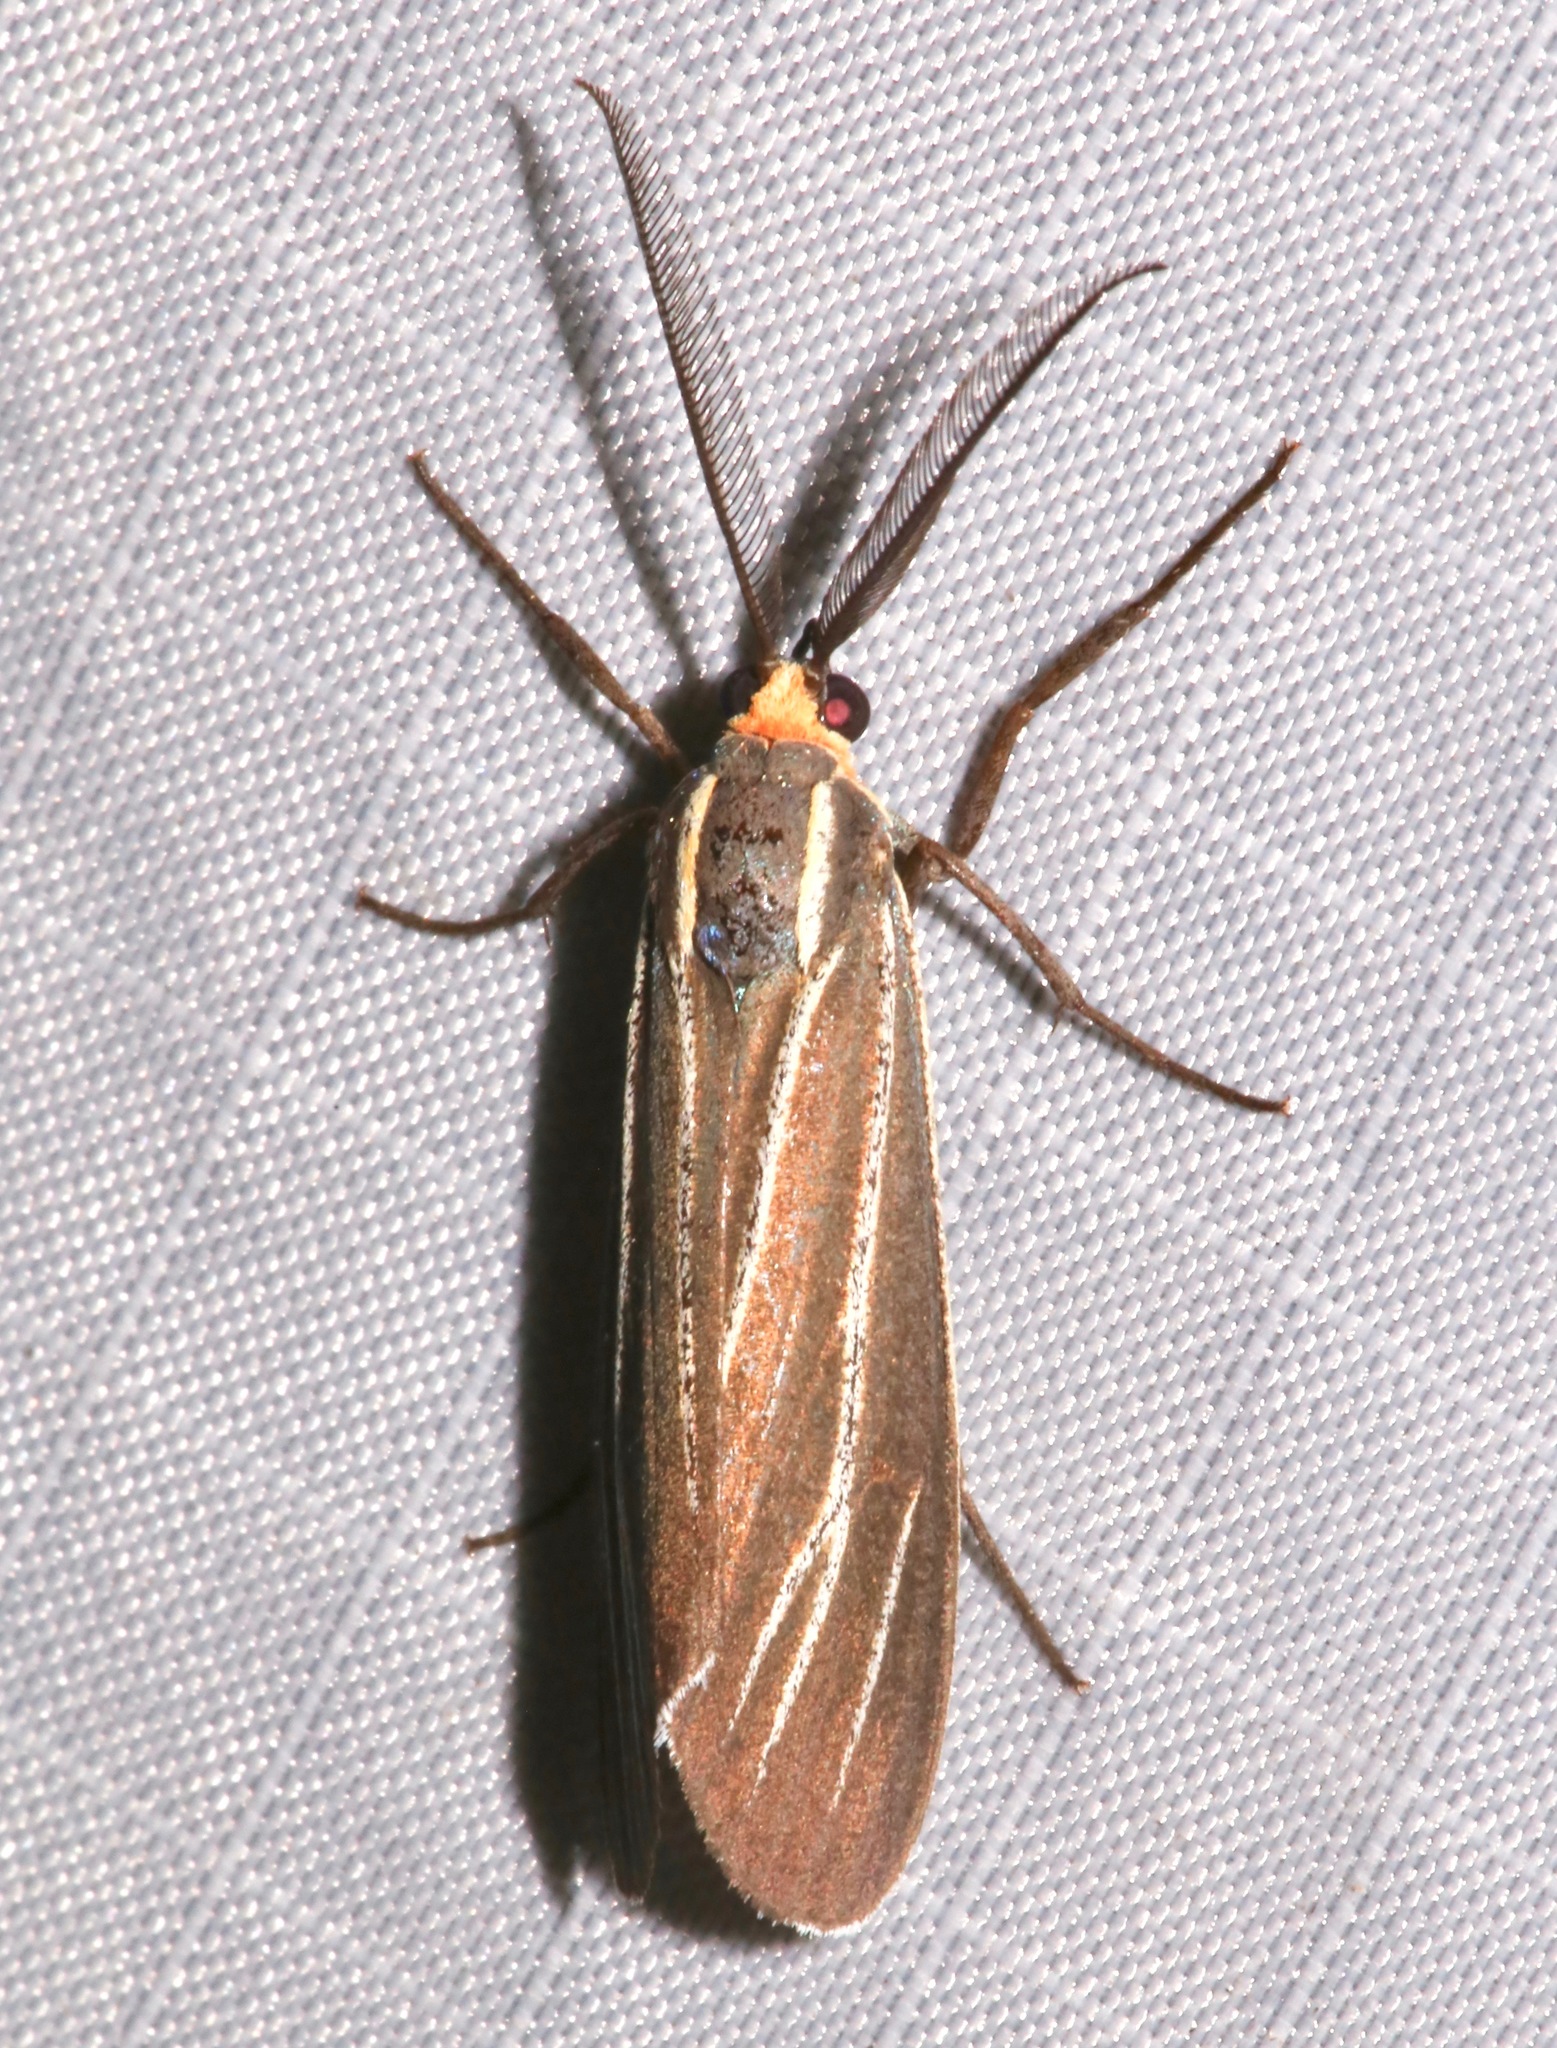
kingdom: Animalia
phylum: Arthropoda
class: Insecta
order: Lepidoptera
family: Erebidae
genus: Ctenucha
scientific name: Ctenucha venosa
